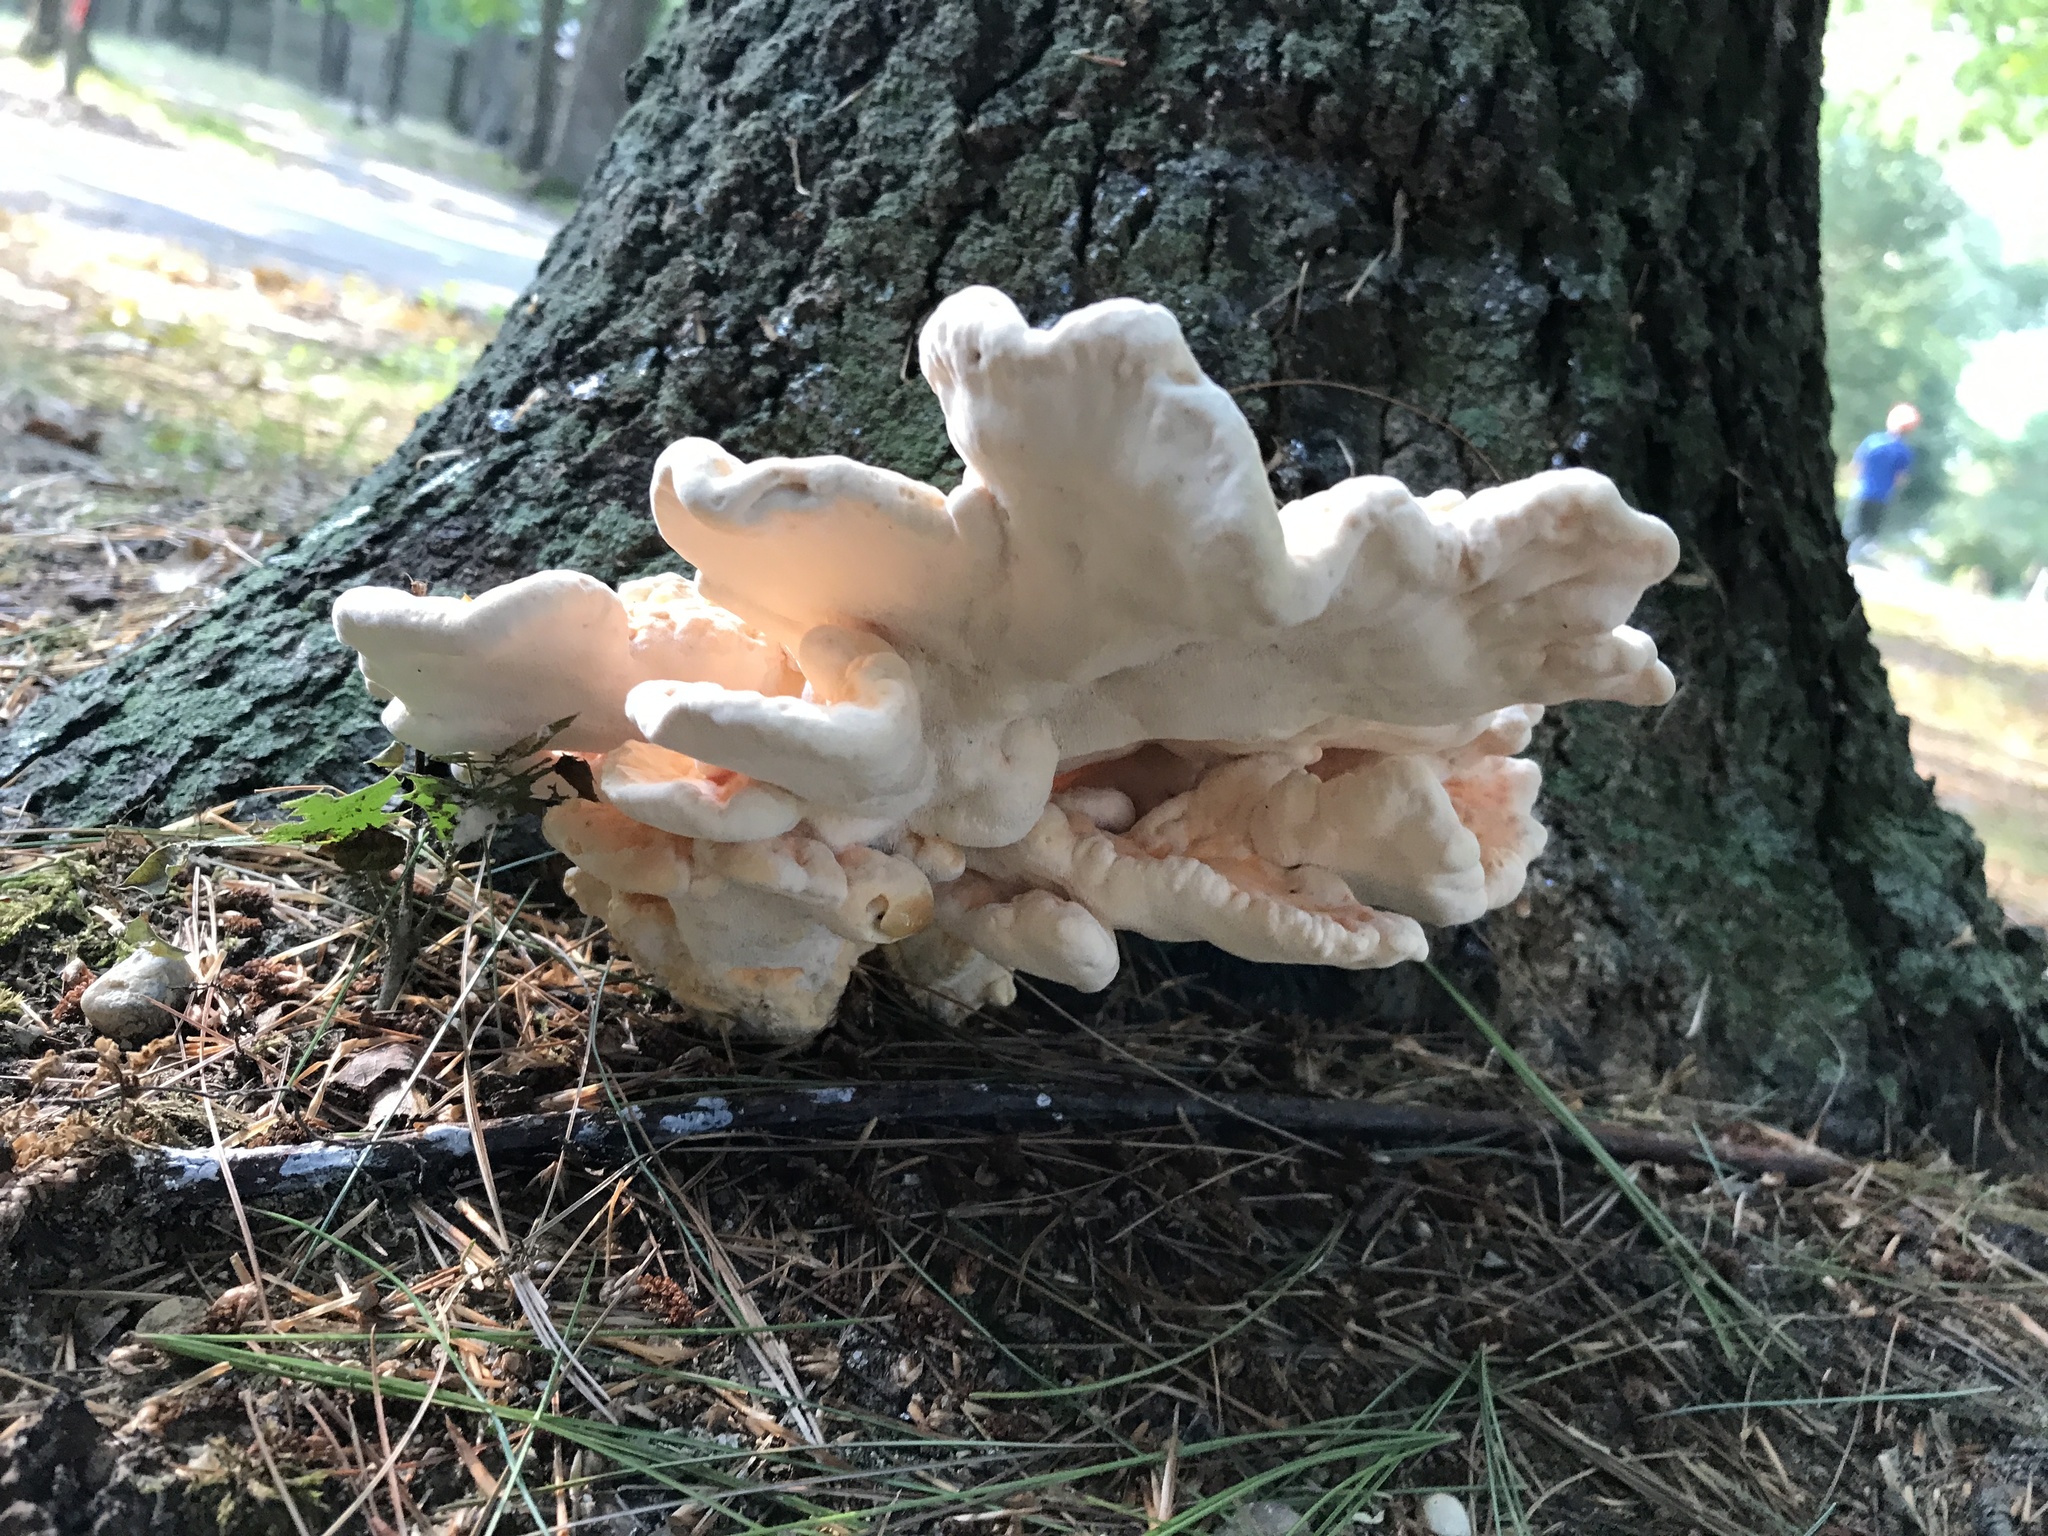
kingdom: Fungi
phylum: Basidiomycota
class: Agaricomycetes
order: Polyporales
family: Laetiporaceae
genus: Laetiporus
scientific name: Laetiporus sulphureus
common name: Chicken of the woods
